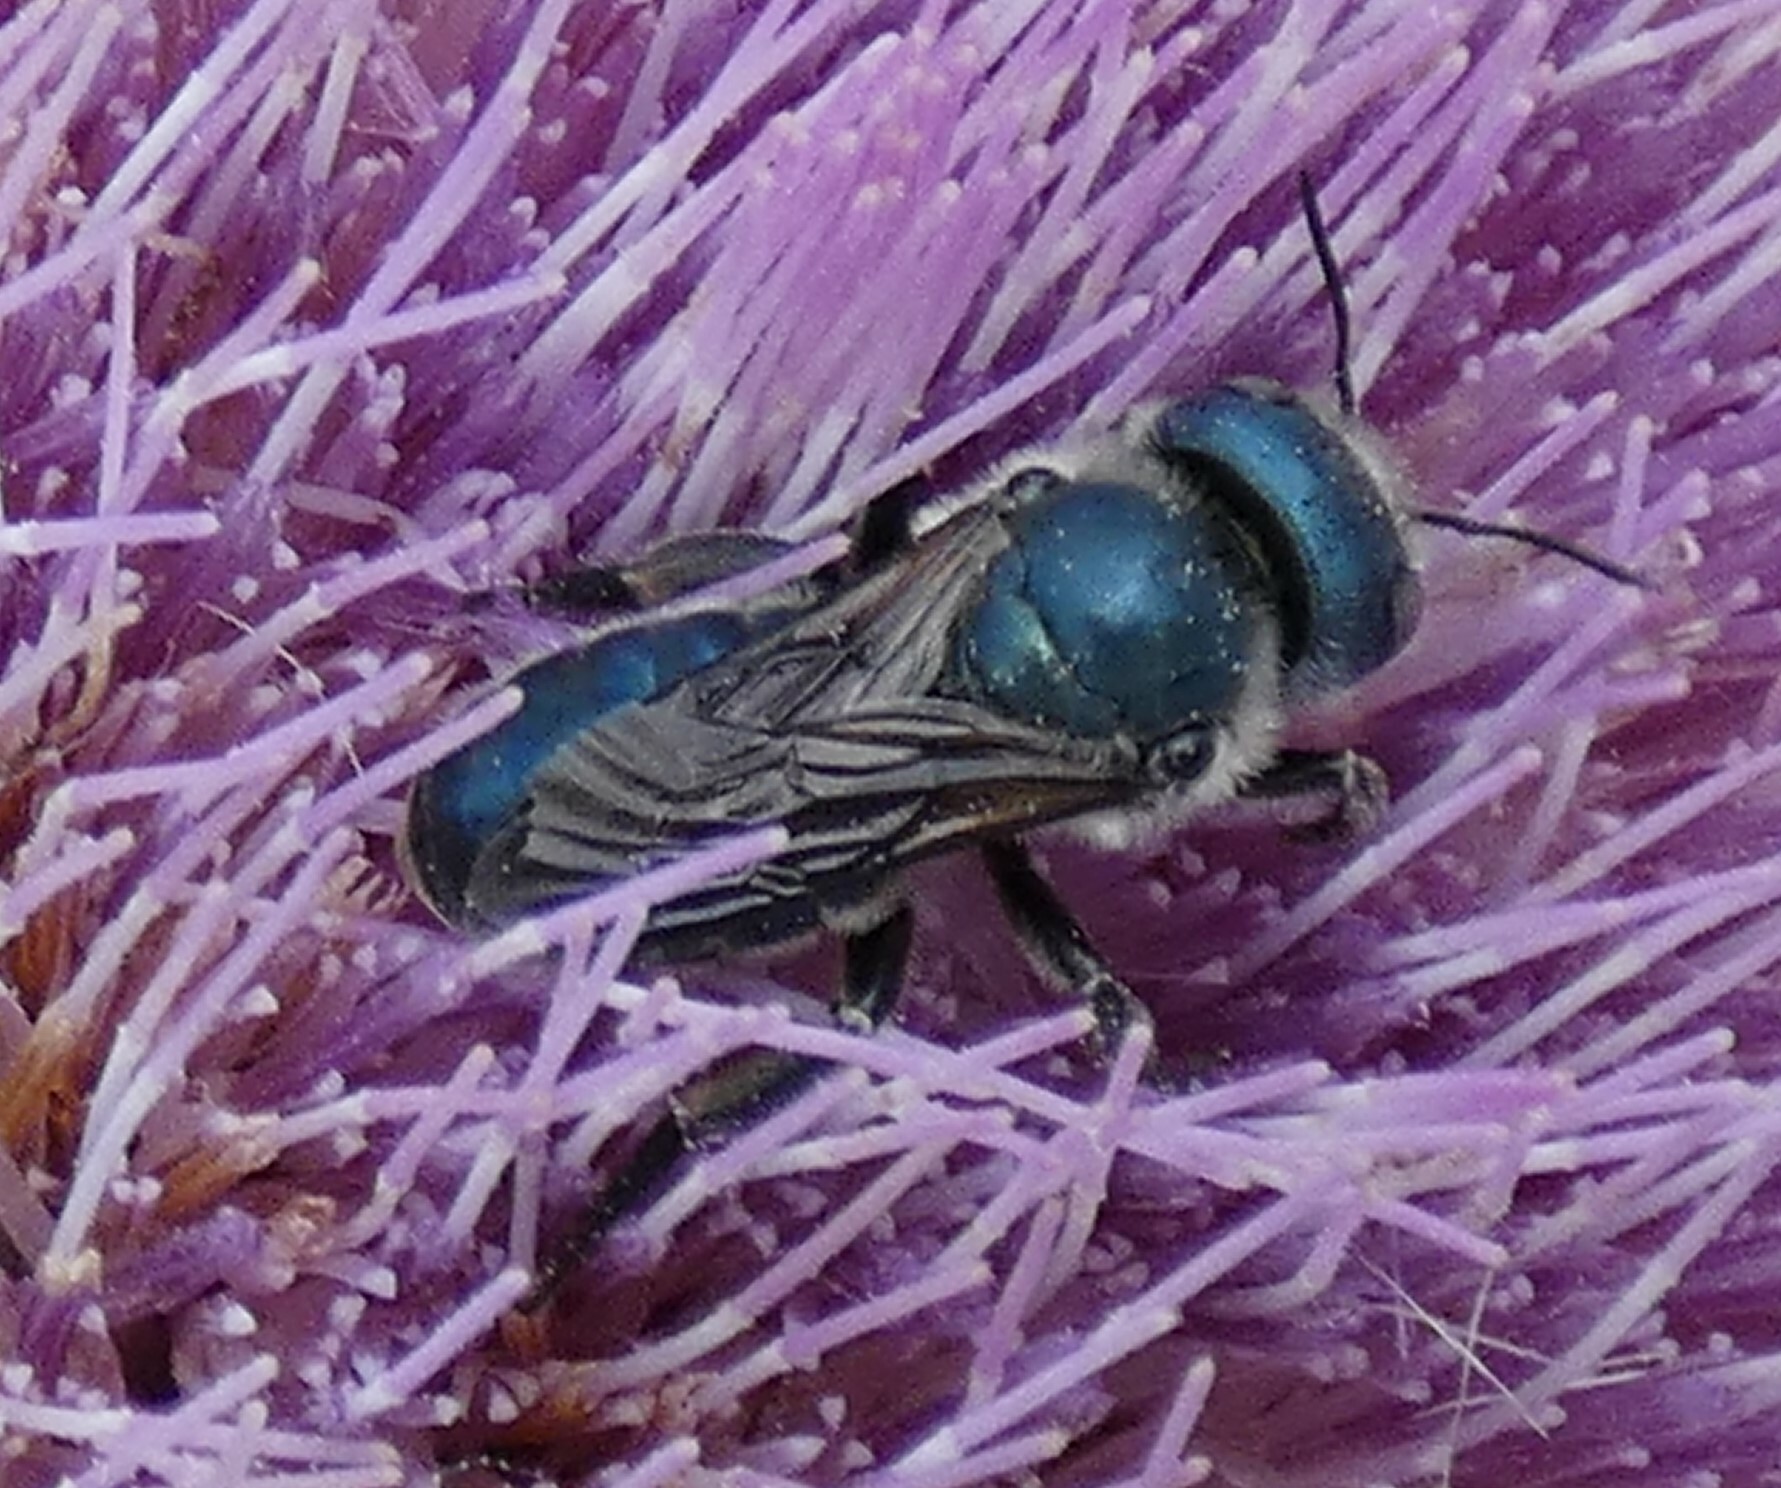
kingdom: Animalia
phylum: Arthropoda
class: Insecta
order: Hymenoptera
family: Megachilidae
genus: Osmia
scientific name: Osmia chalybea
